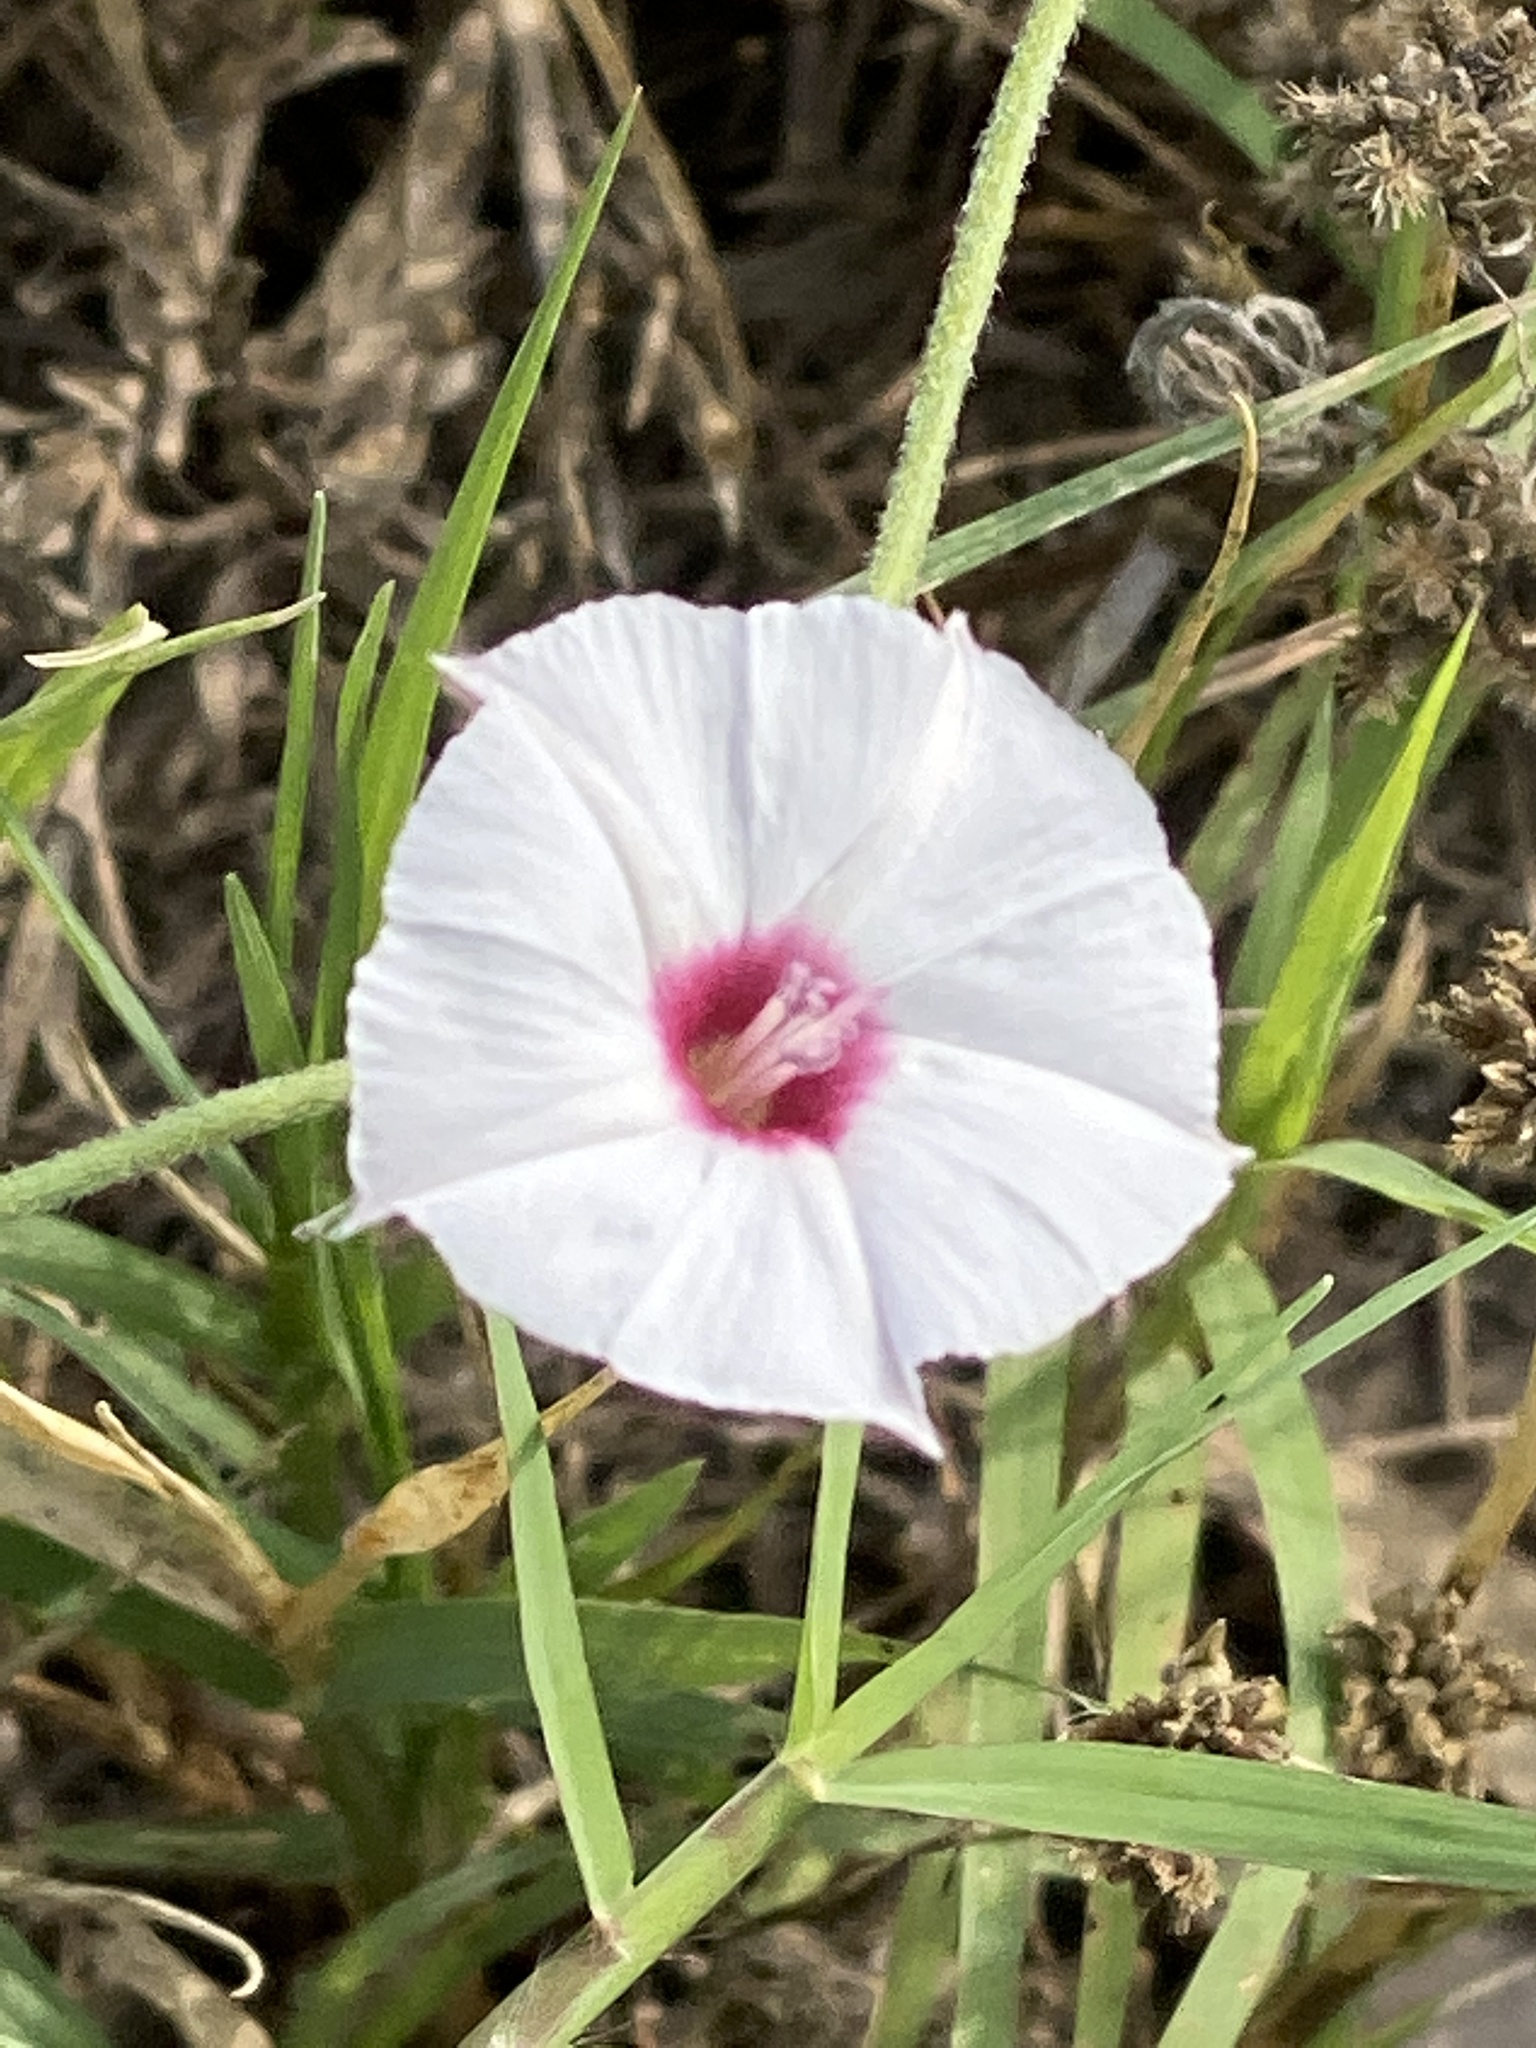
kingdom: Plantae
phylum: Tracheophyta
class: Magnoliopsida
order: Solanales
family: Convolvulaceae
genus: Convolvulus
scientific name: Convolvulus equitans
